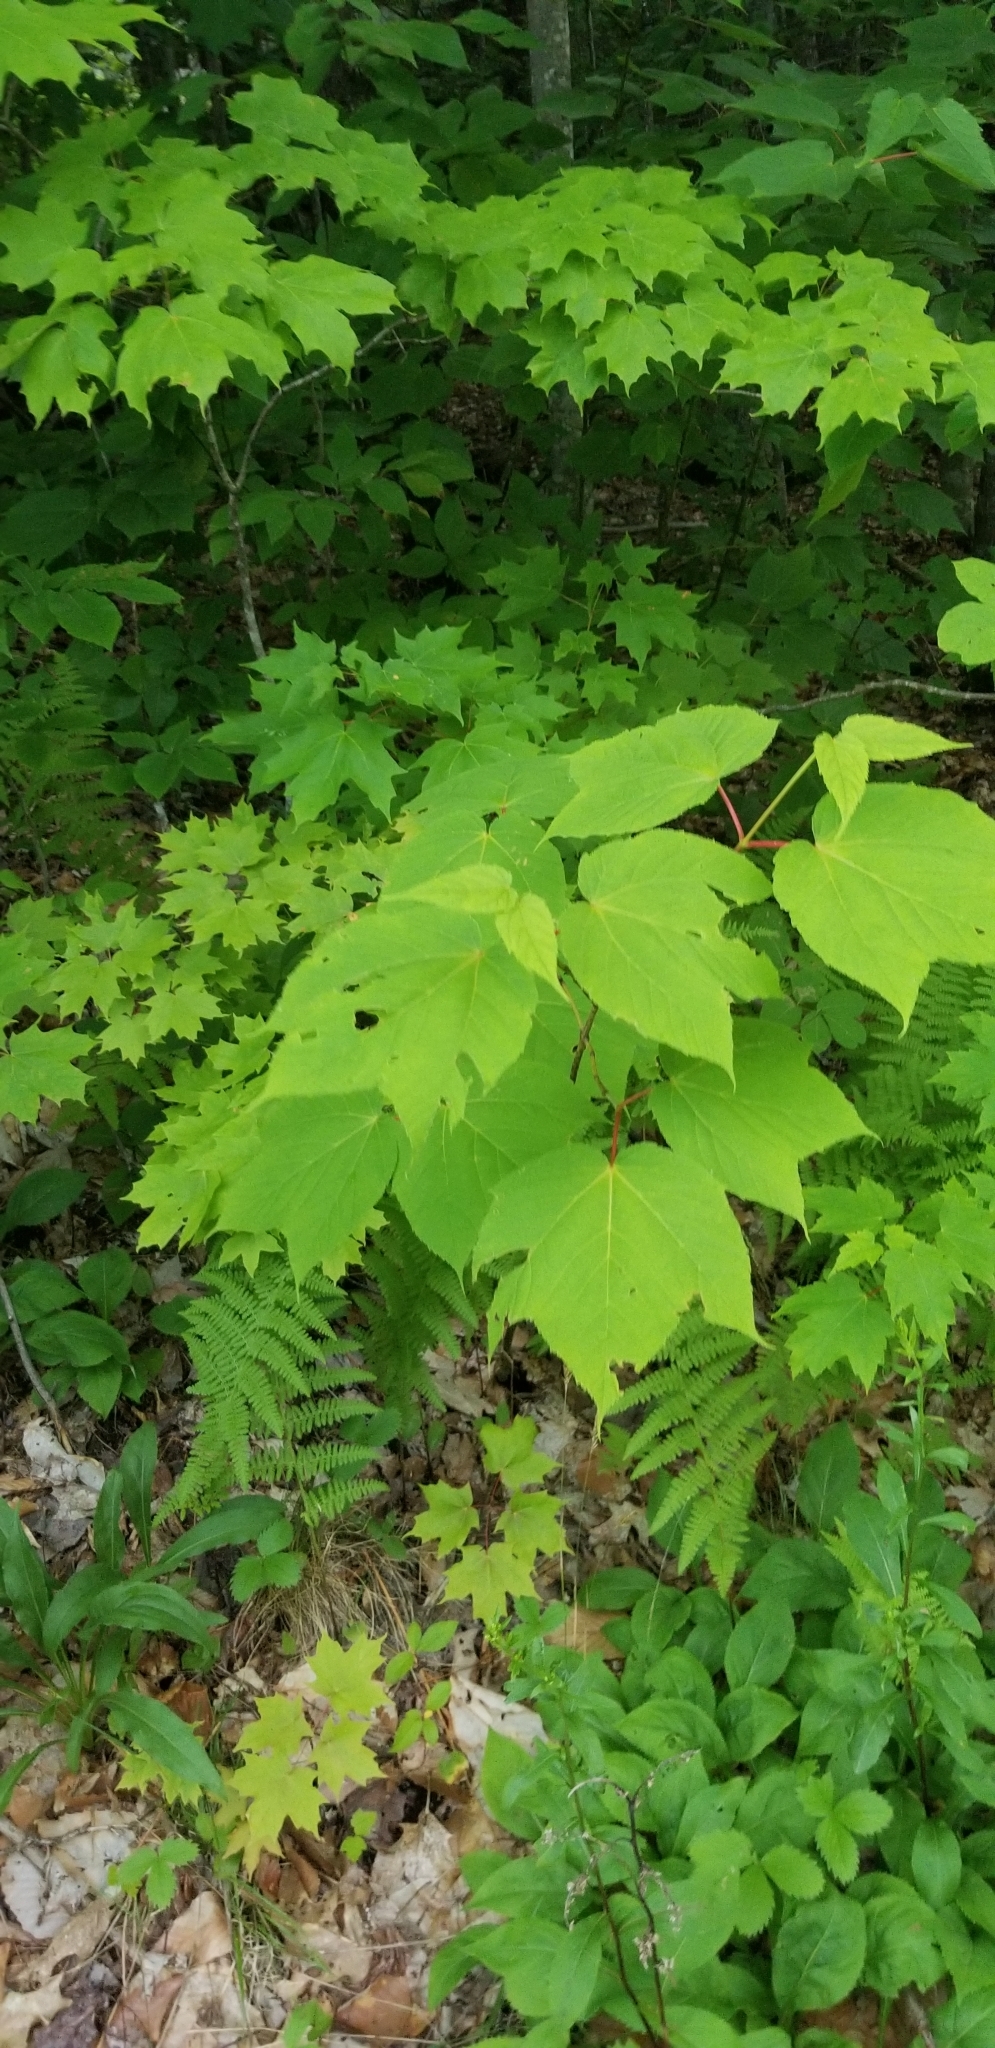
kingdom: Plantae
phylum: Tracheophyta
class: Magnoliopsida
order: Sapindales
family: Sapindaceae
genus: Acer
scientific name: Acer pensylvanicum
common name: Moosewood
